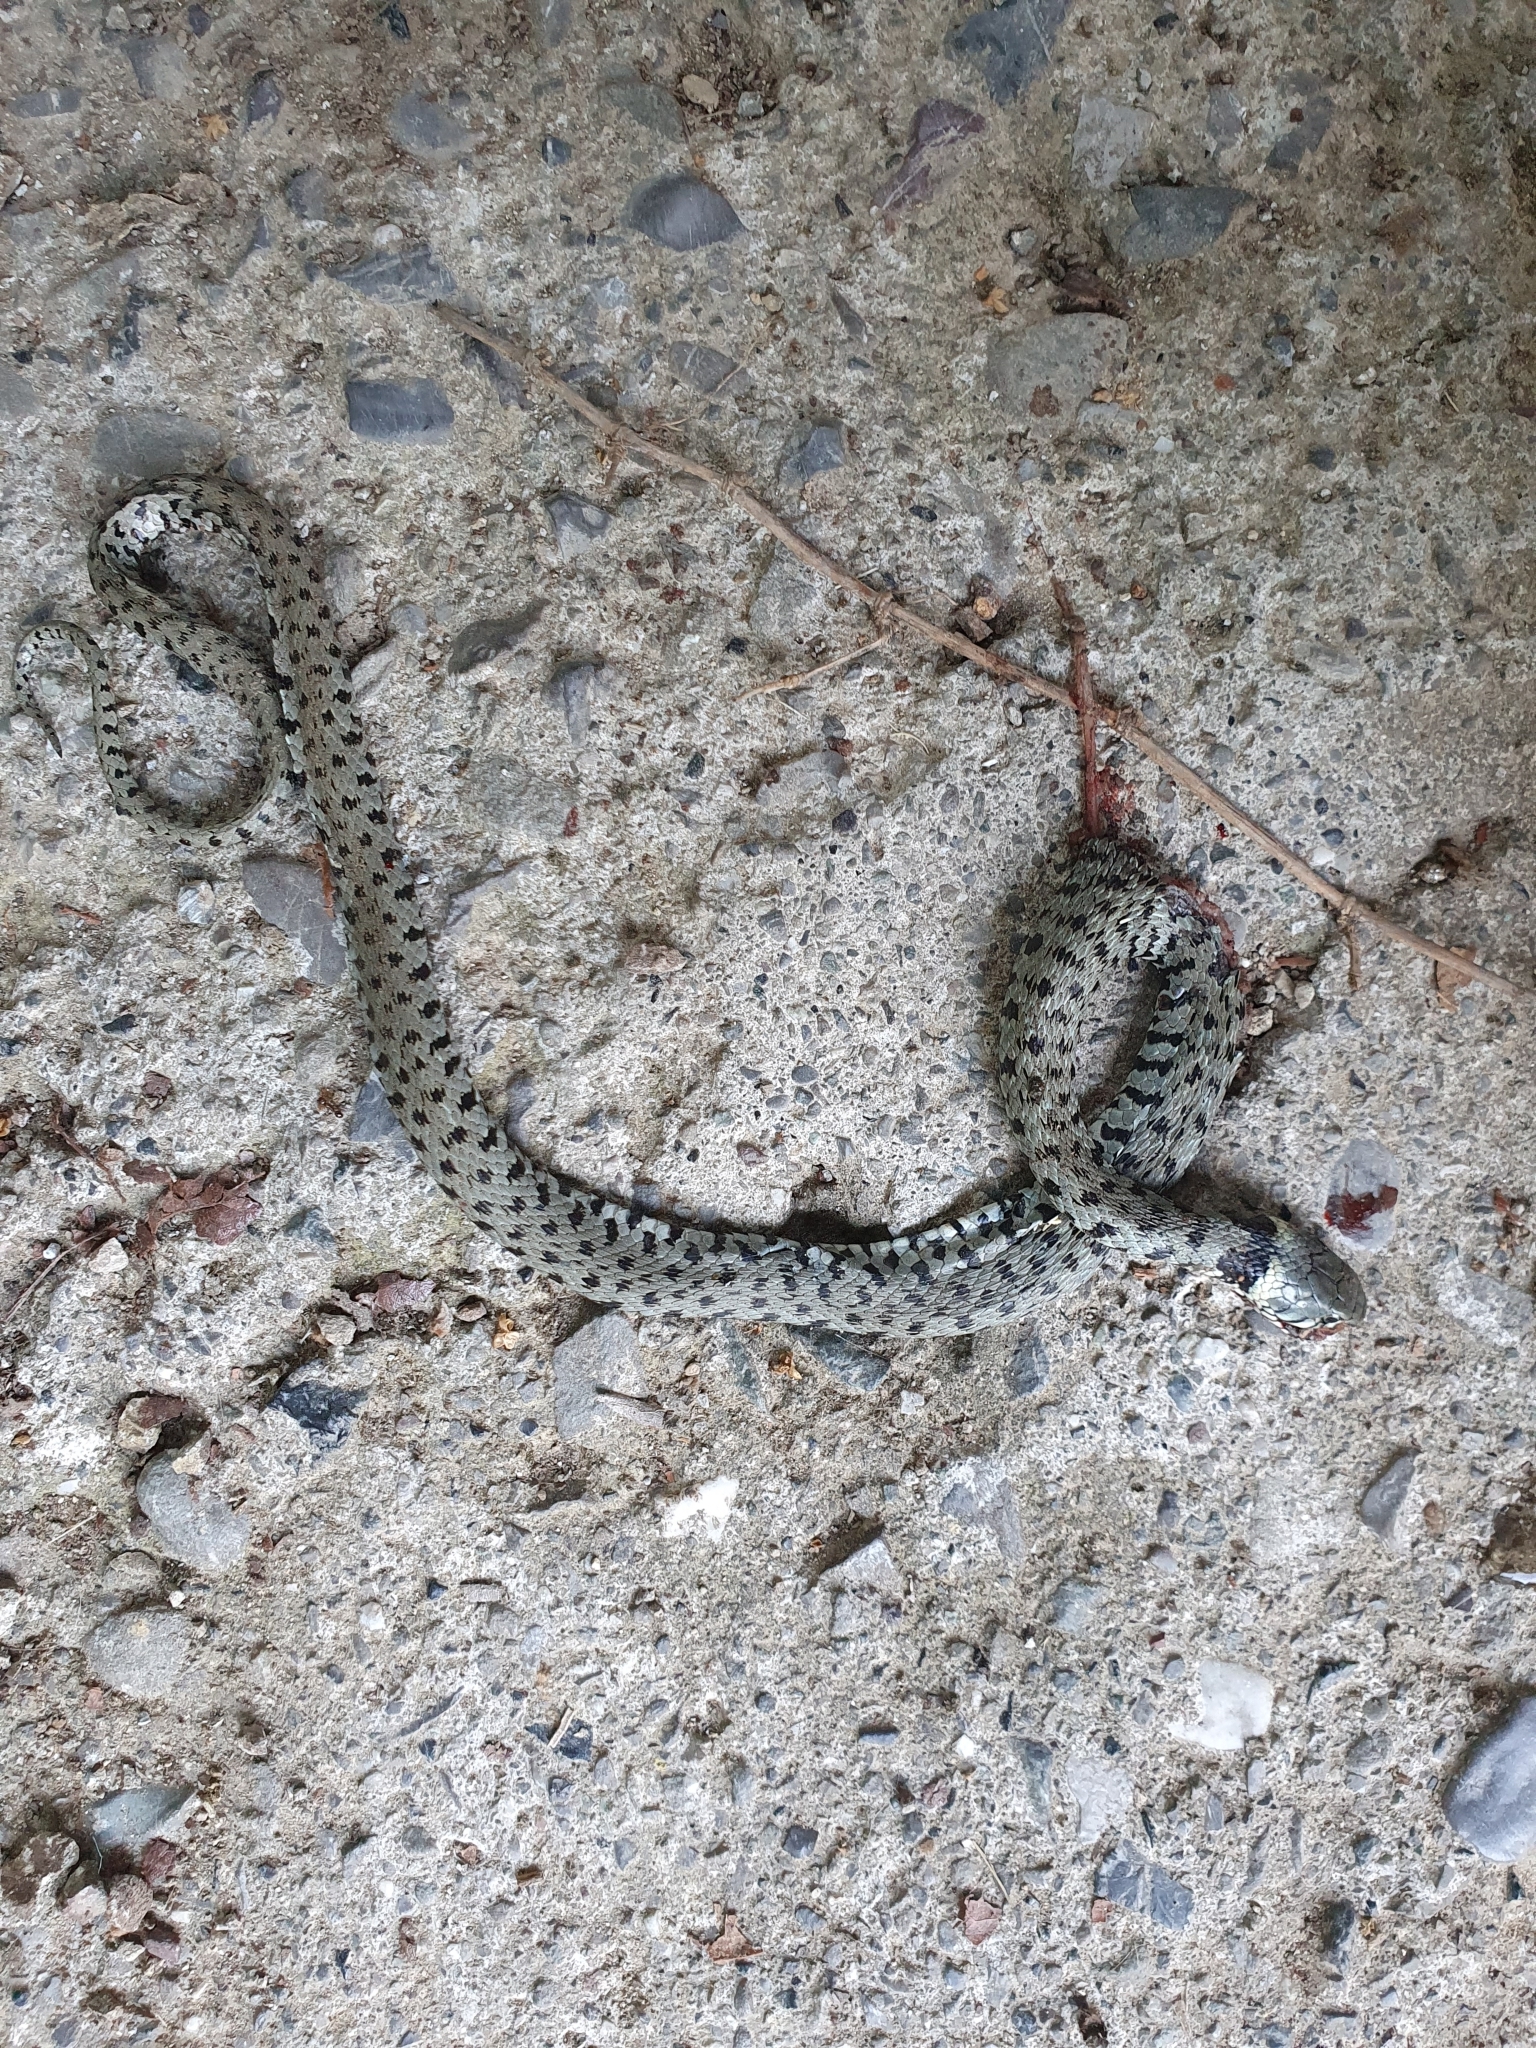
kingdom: Animalia
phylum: Chordata
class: Squamata
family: Colubridae
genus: Natrix
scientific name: Natrix helvetica
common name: Banded grass snake
